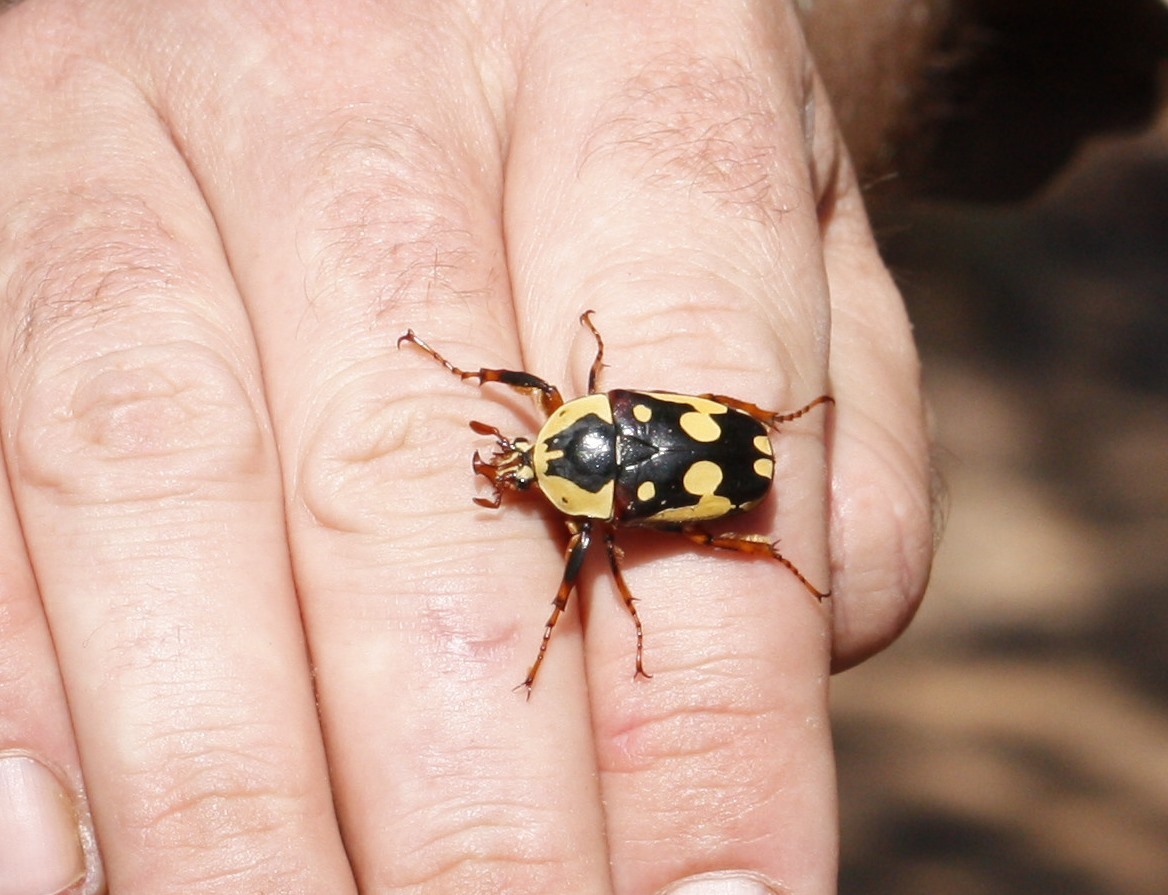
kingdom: Animalia
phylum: Arthropoda
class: Insecta
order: Coleoptera
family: Scarabaeidae
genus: Cheirolasia
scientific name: Cheirolasia burkei
